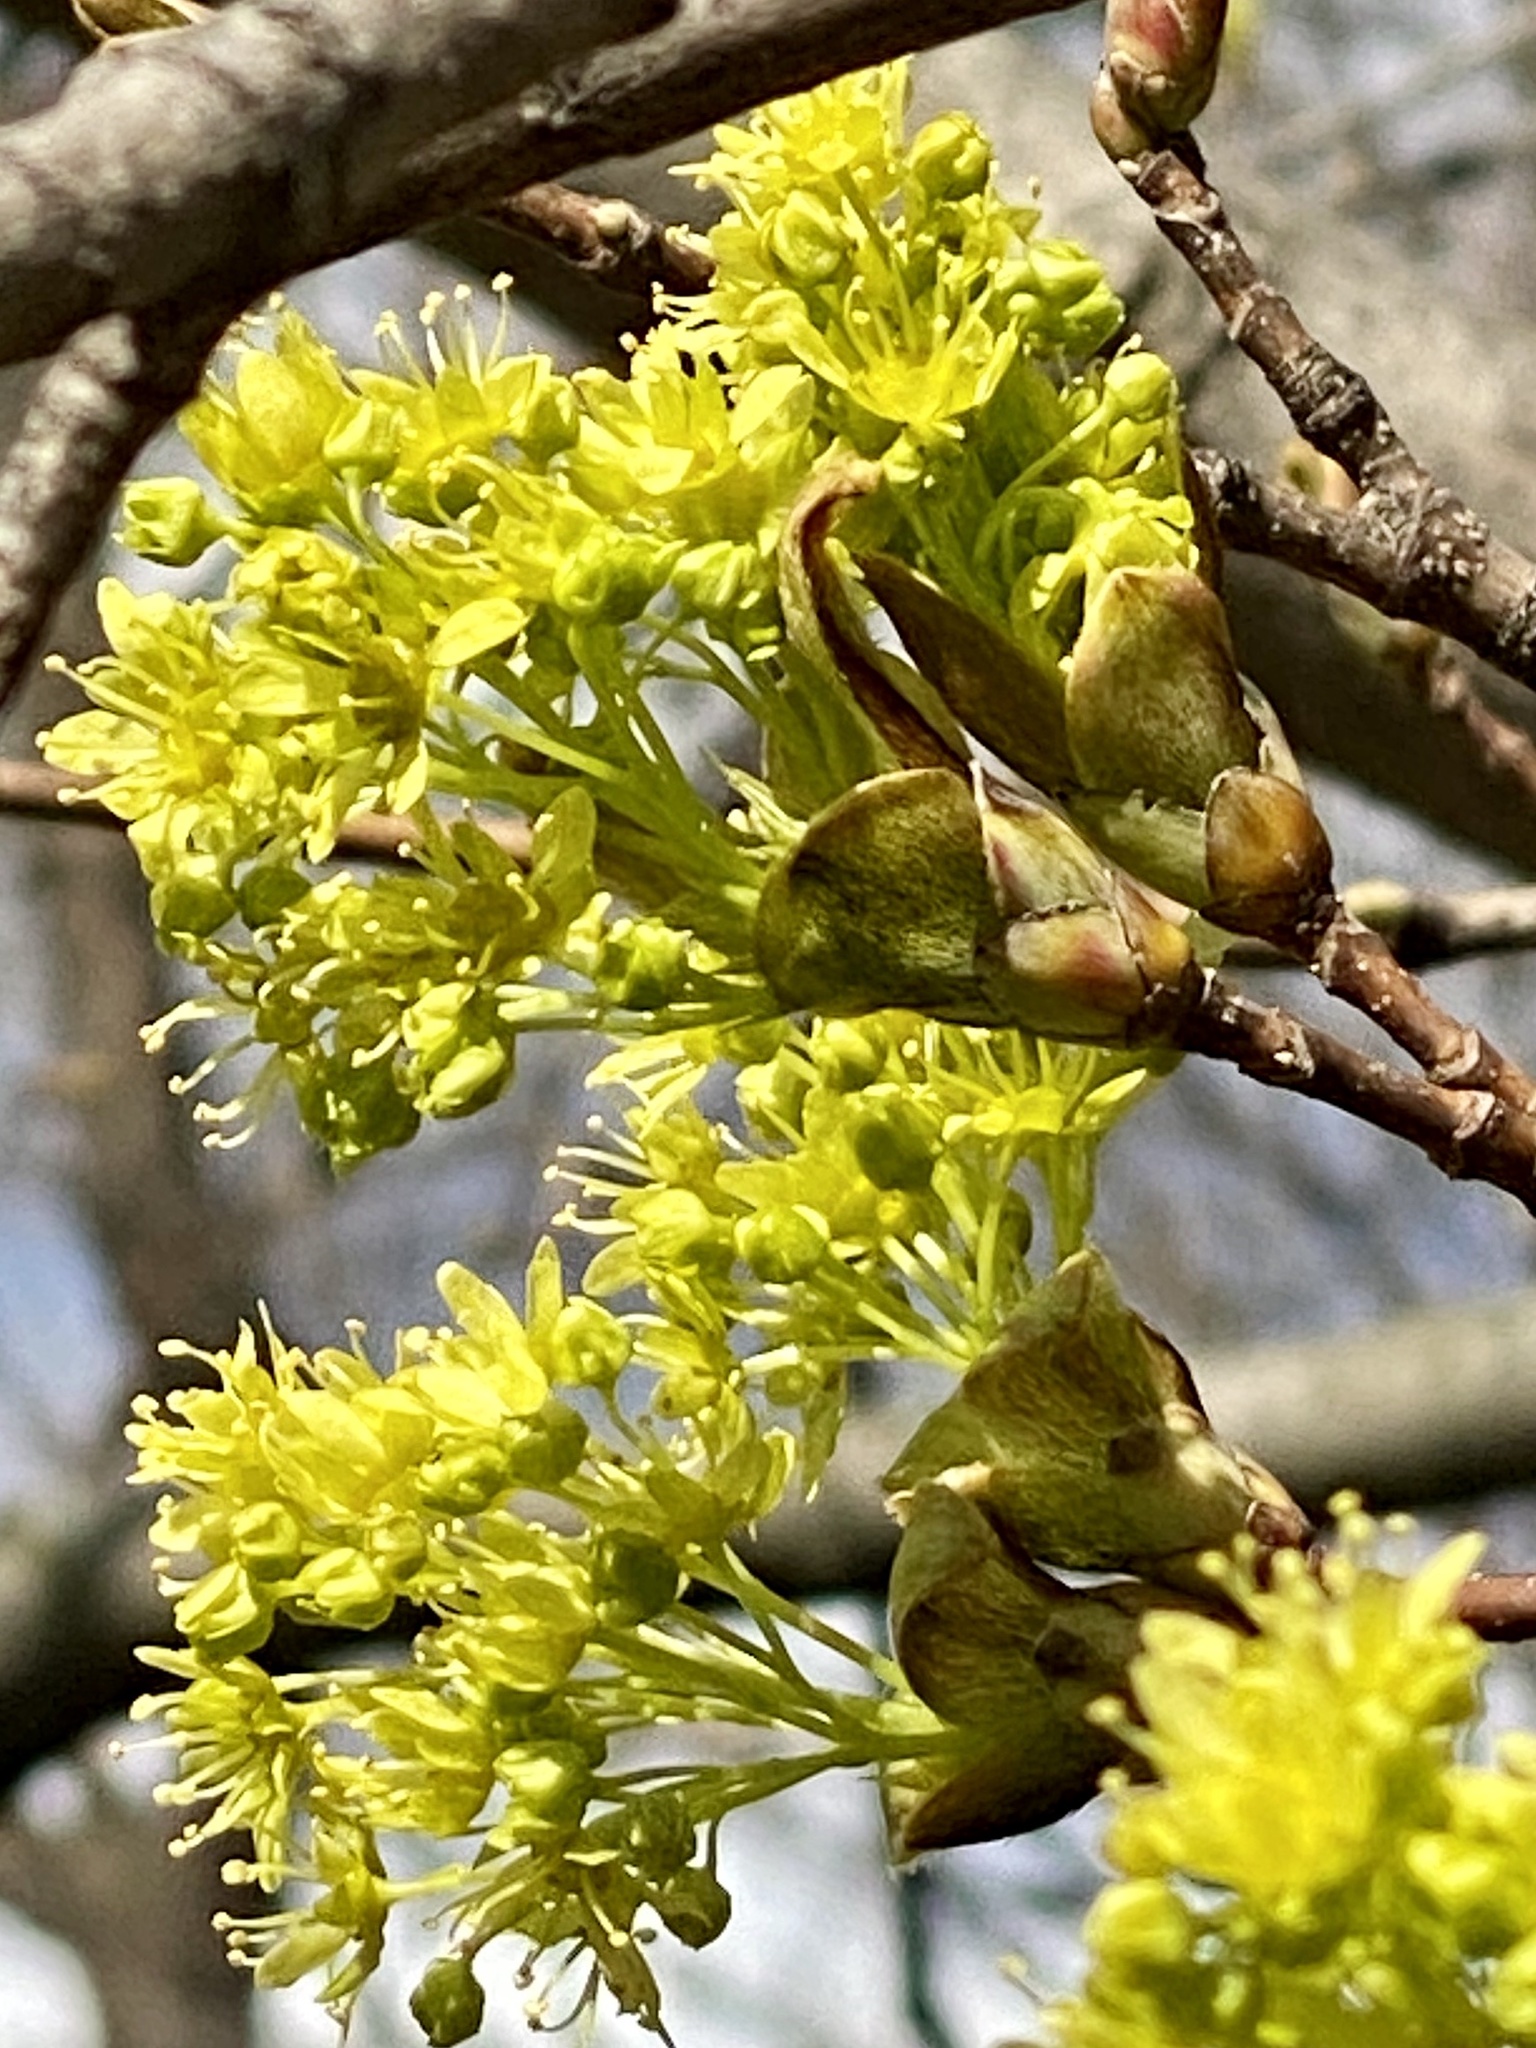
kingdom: Plantae
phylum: Tracheophyta
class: Magnoliopsida
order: Sapindales
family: Sapindaceae
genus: Acer
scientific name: Acer platanoides
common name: Norway maple
